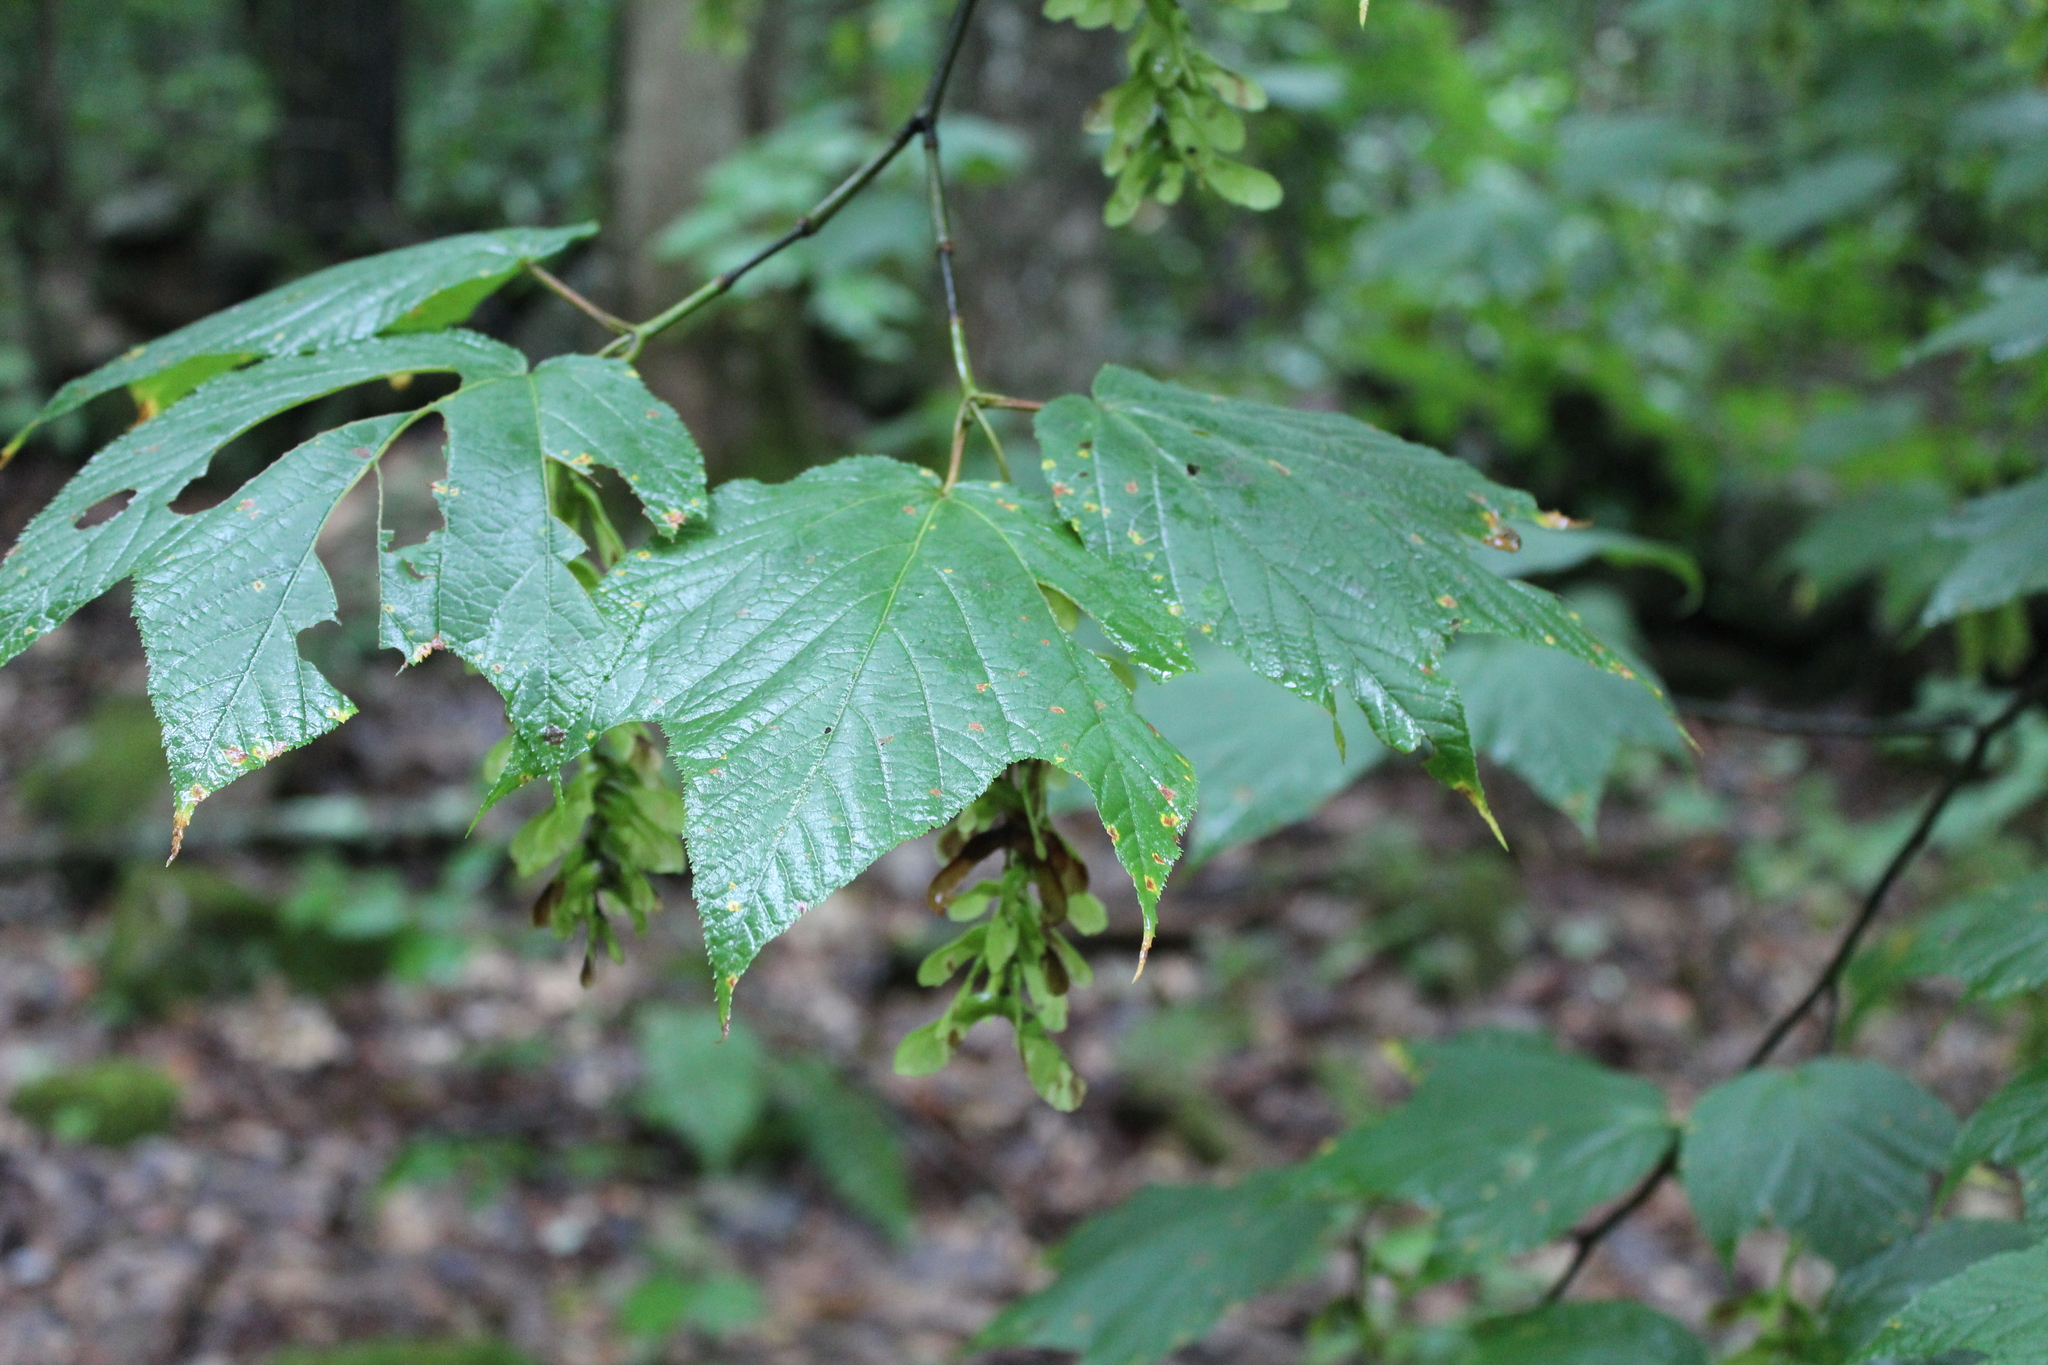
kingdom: Plantae
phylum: Tracheophyta
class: Magnoliopsida
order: Sapindales
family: Sapindaceae
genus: Acer
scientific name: Acer pensylvanicum
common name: Moosewood
